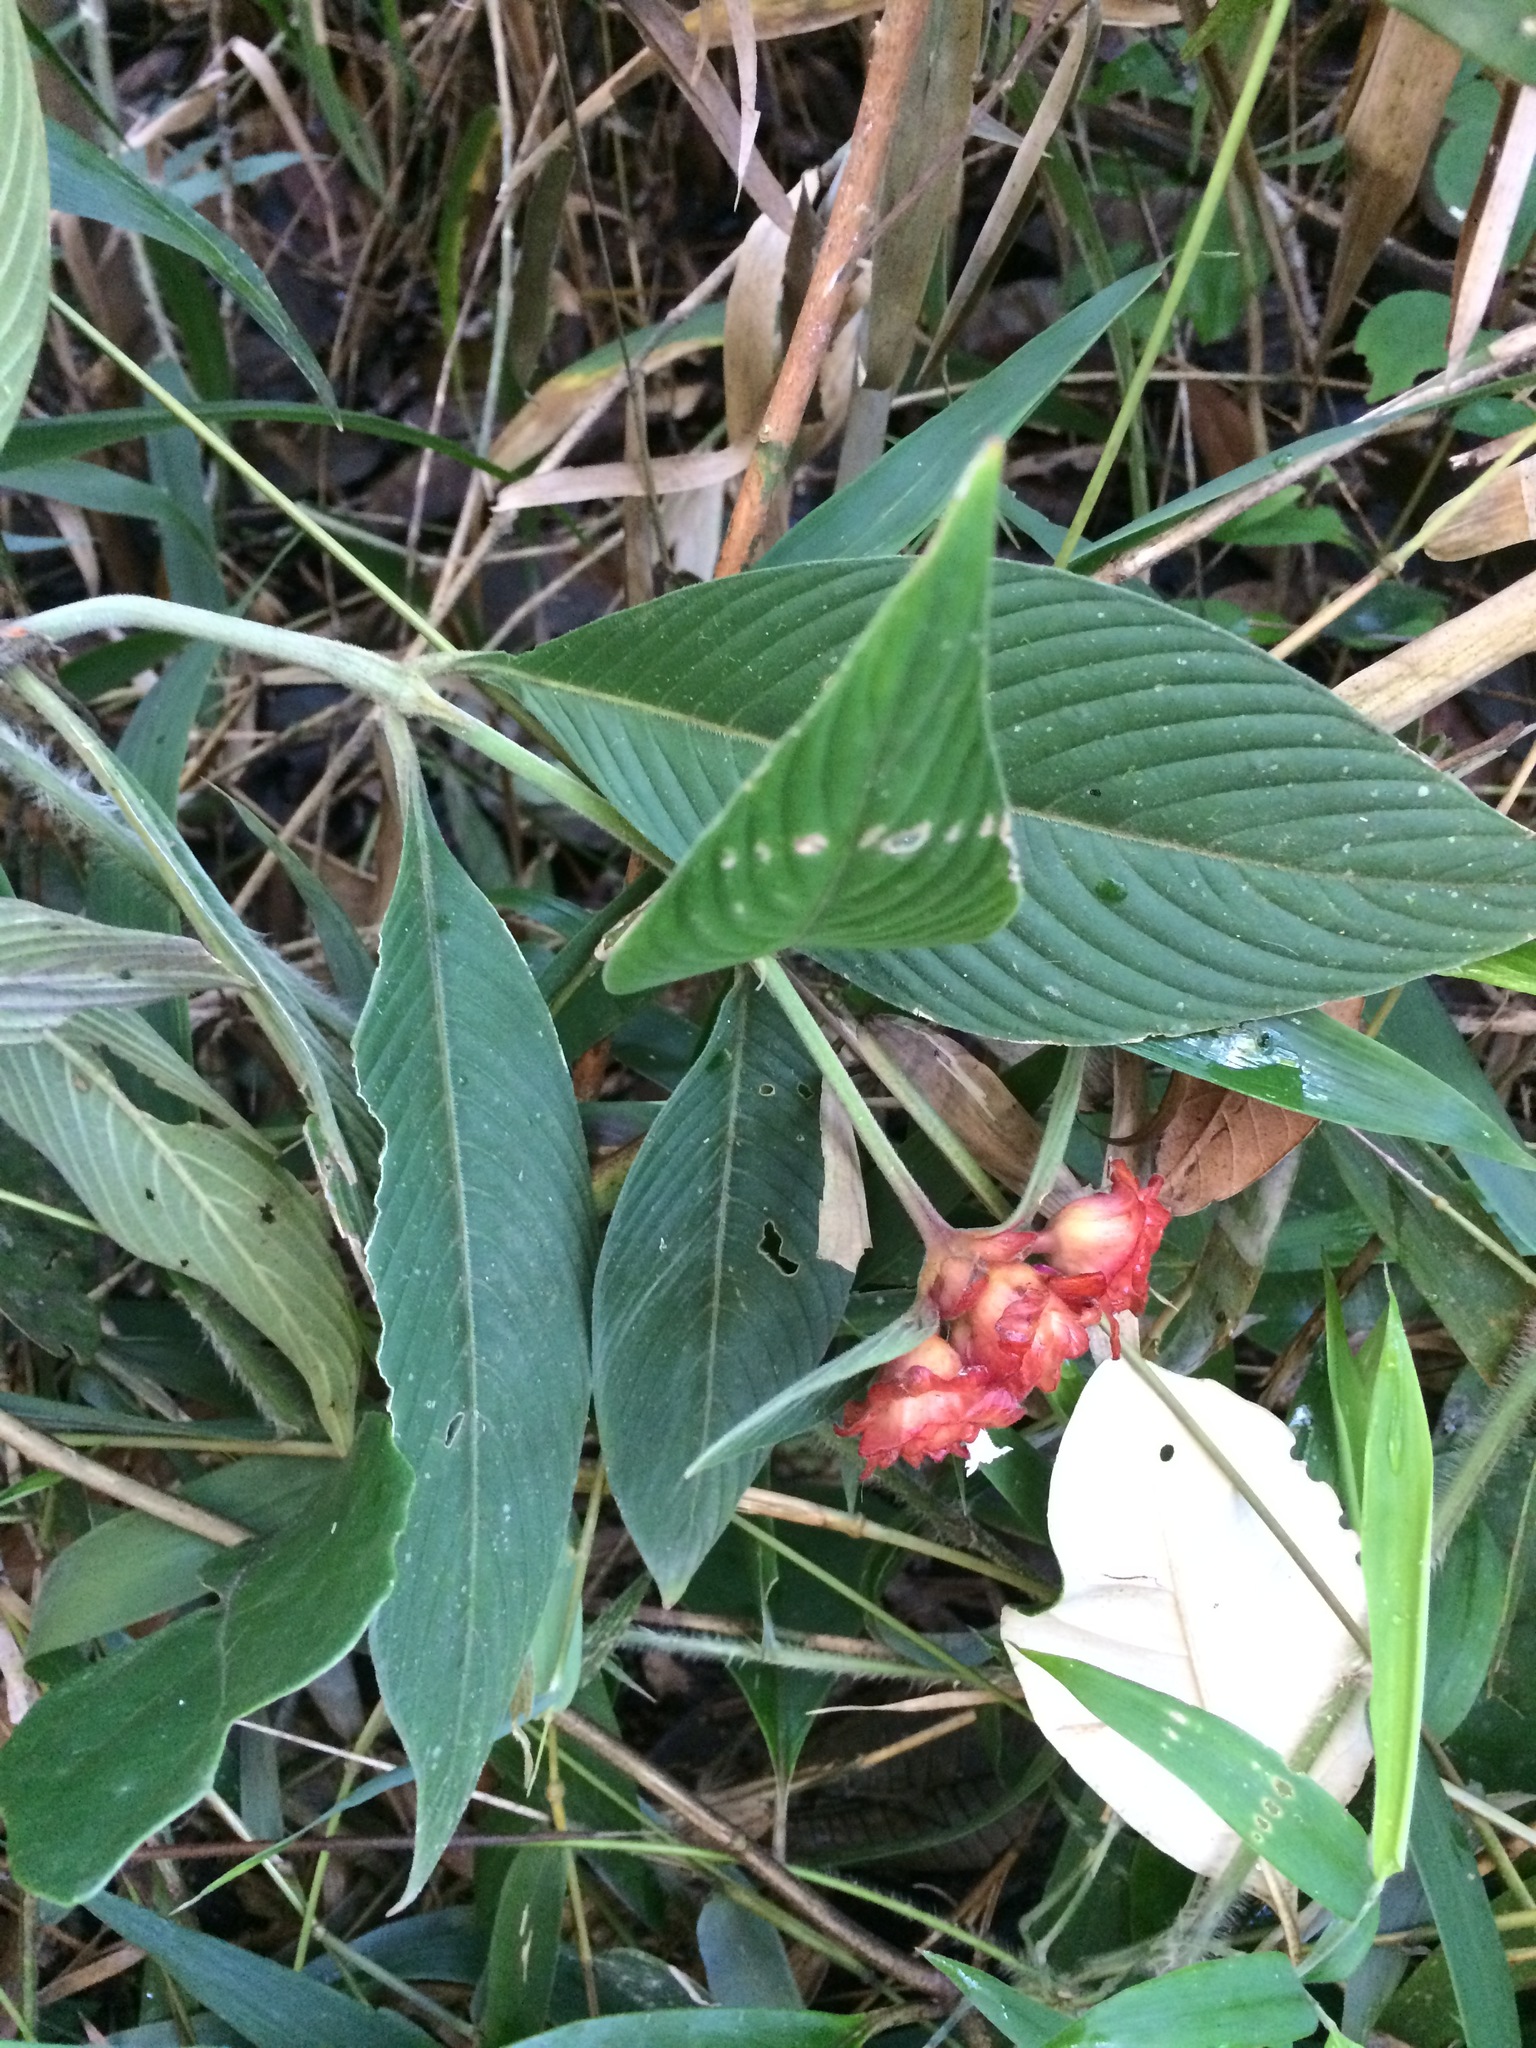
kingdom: Plantae
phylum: Tracheophyta
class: Magnoliopsida
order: Gentianales
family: Rubiaceae
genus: Palicourea
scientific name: Palicourea ruelliifolia
